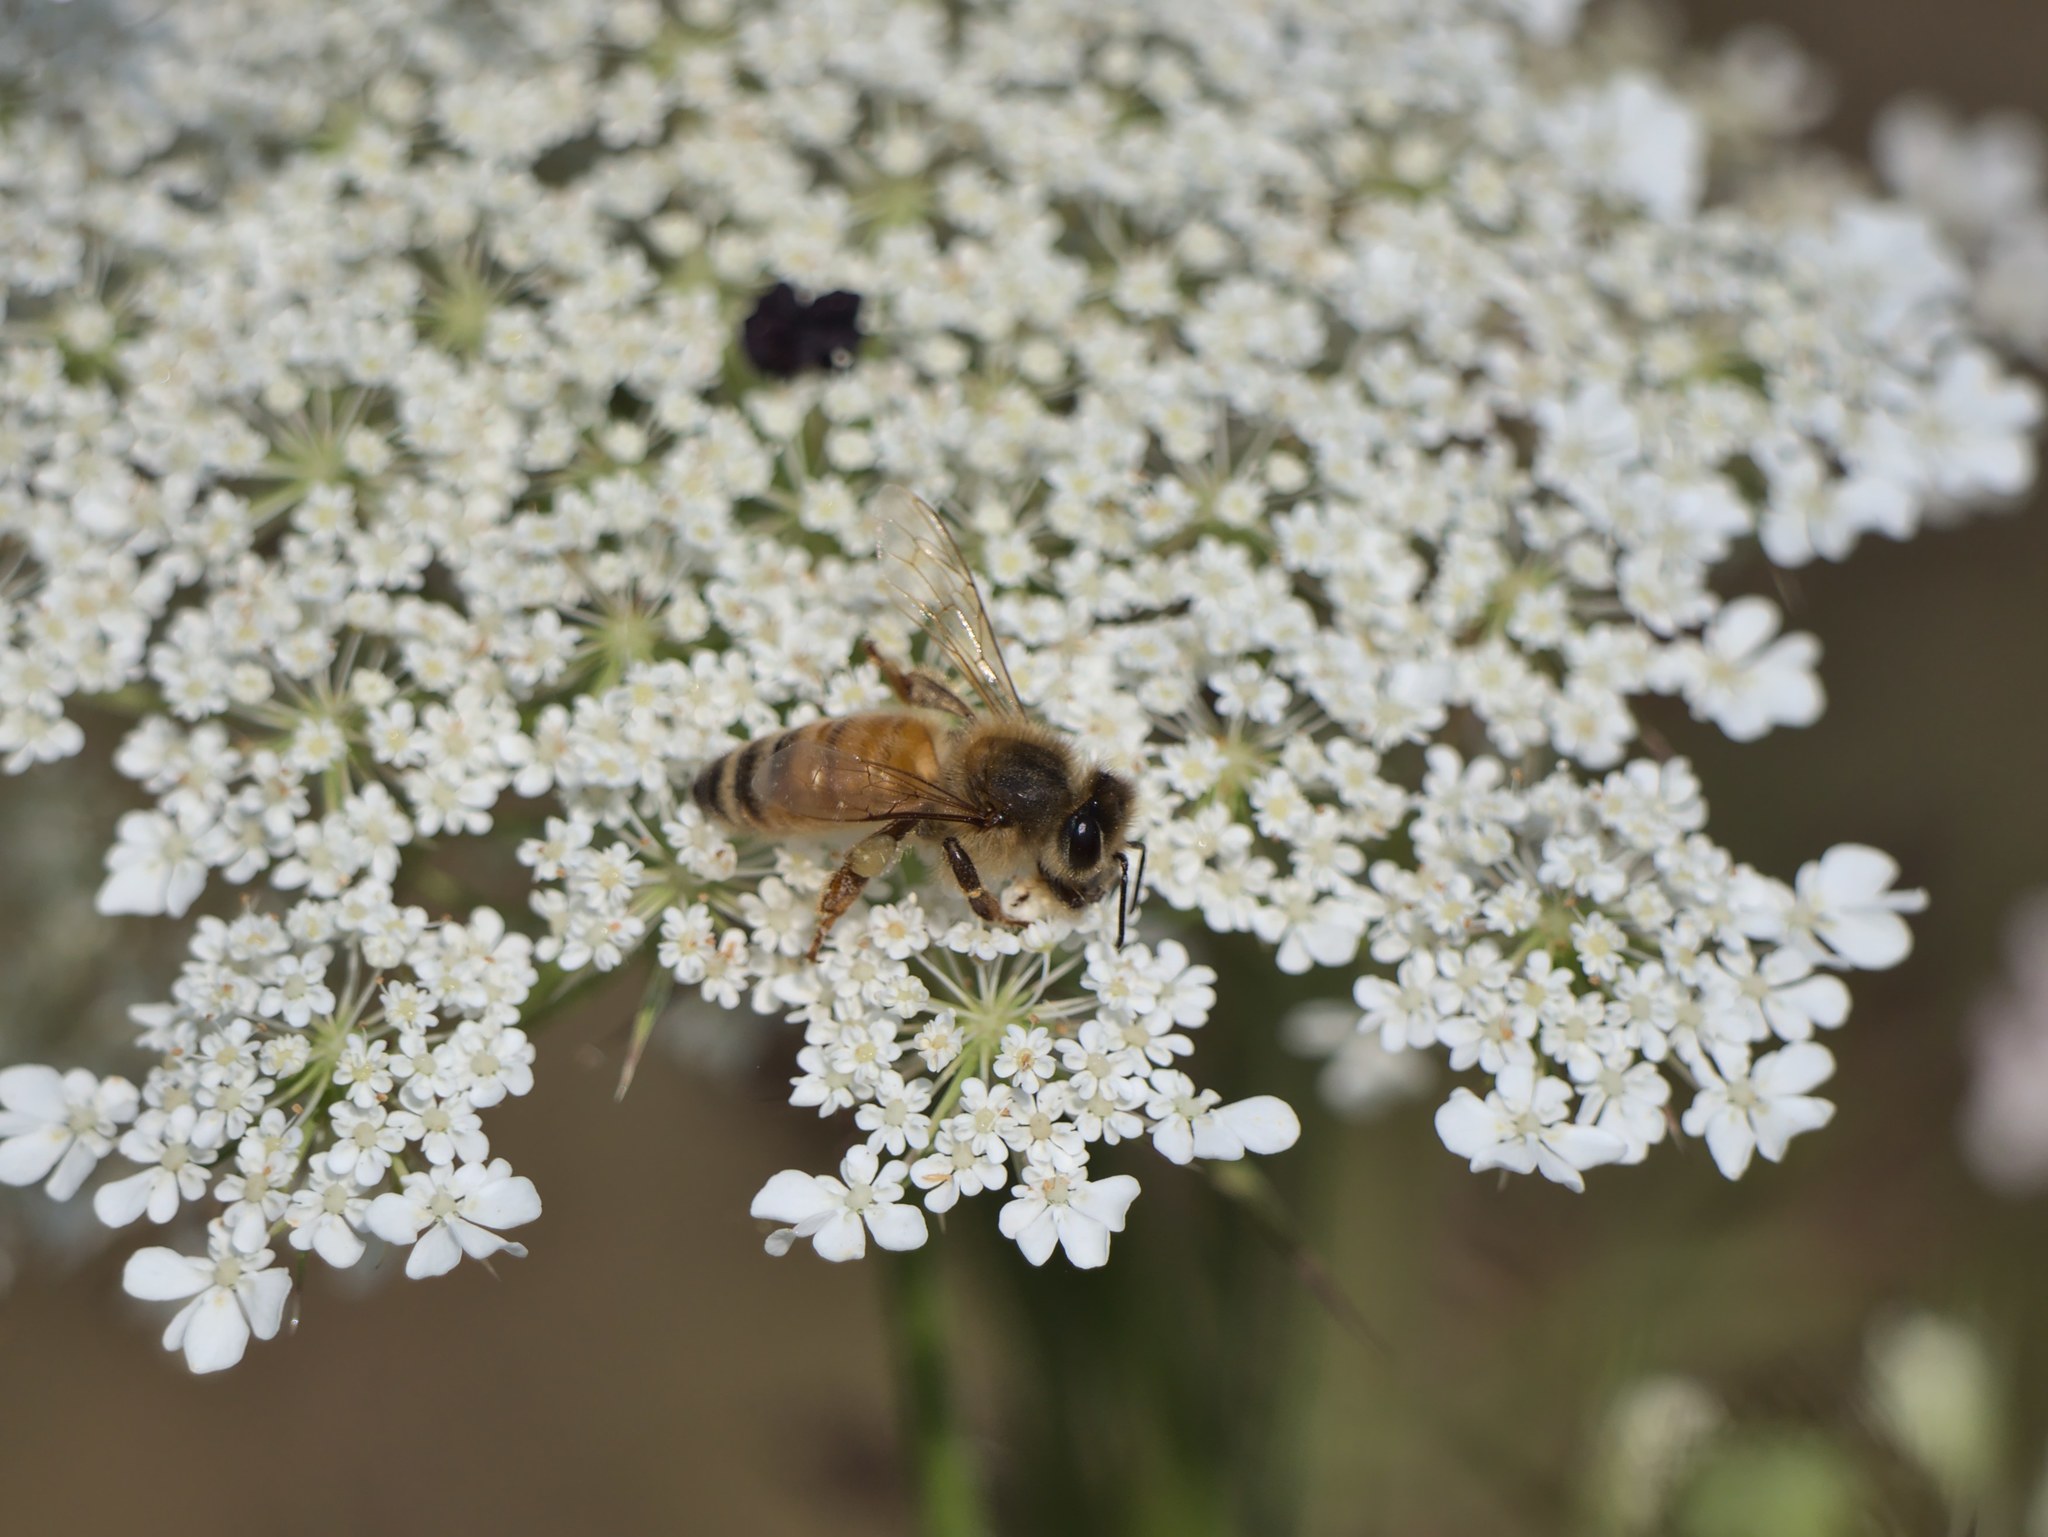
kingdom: Animalia
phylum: Arthropoda
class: Insecta
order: Hymenoptera
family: Apidae
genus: Apis
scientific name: Apis mellifera
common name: Honey bee
